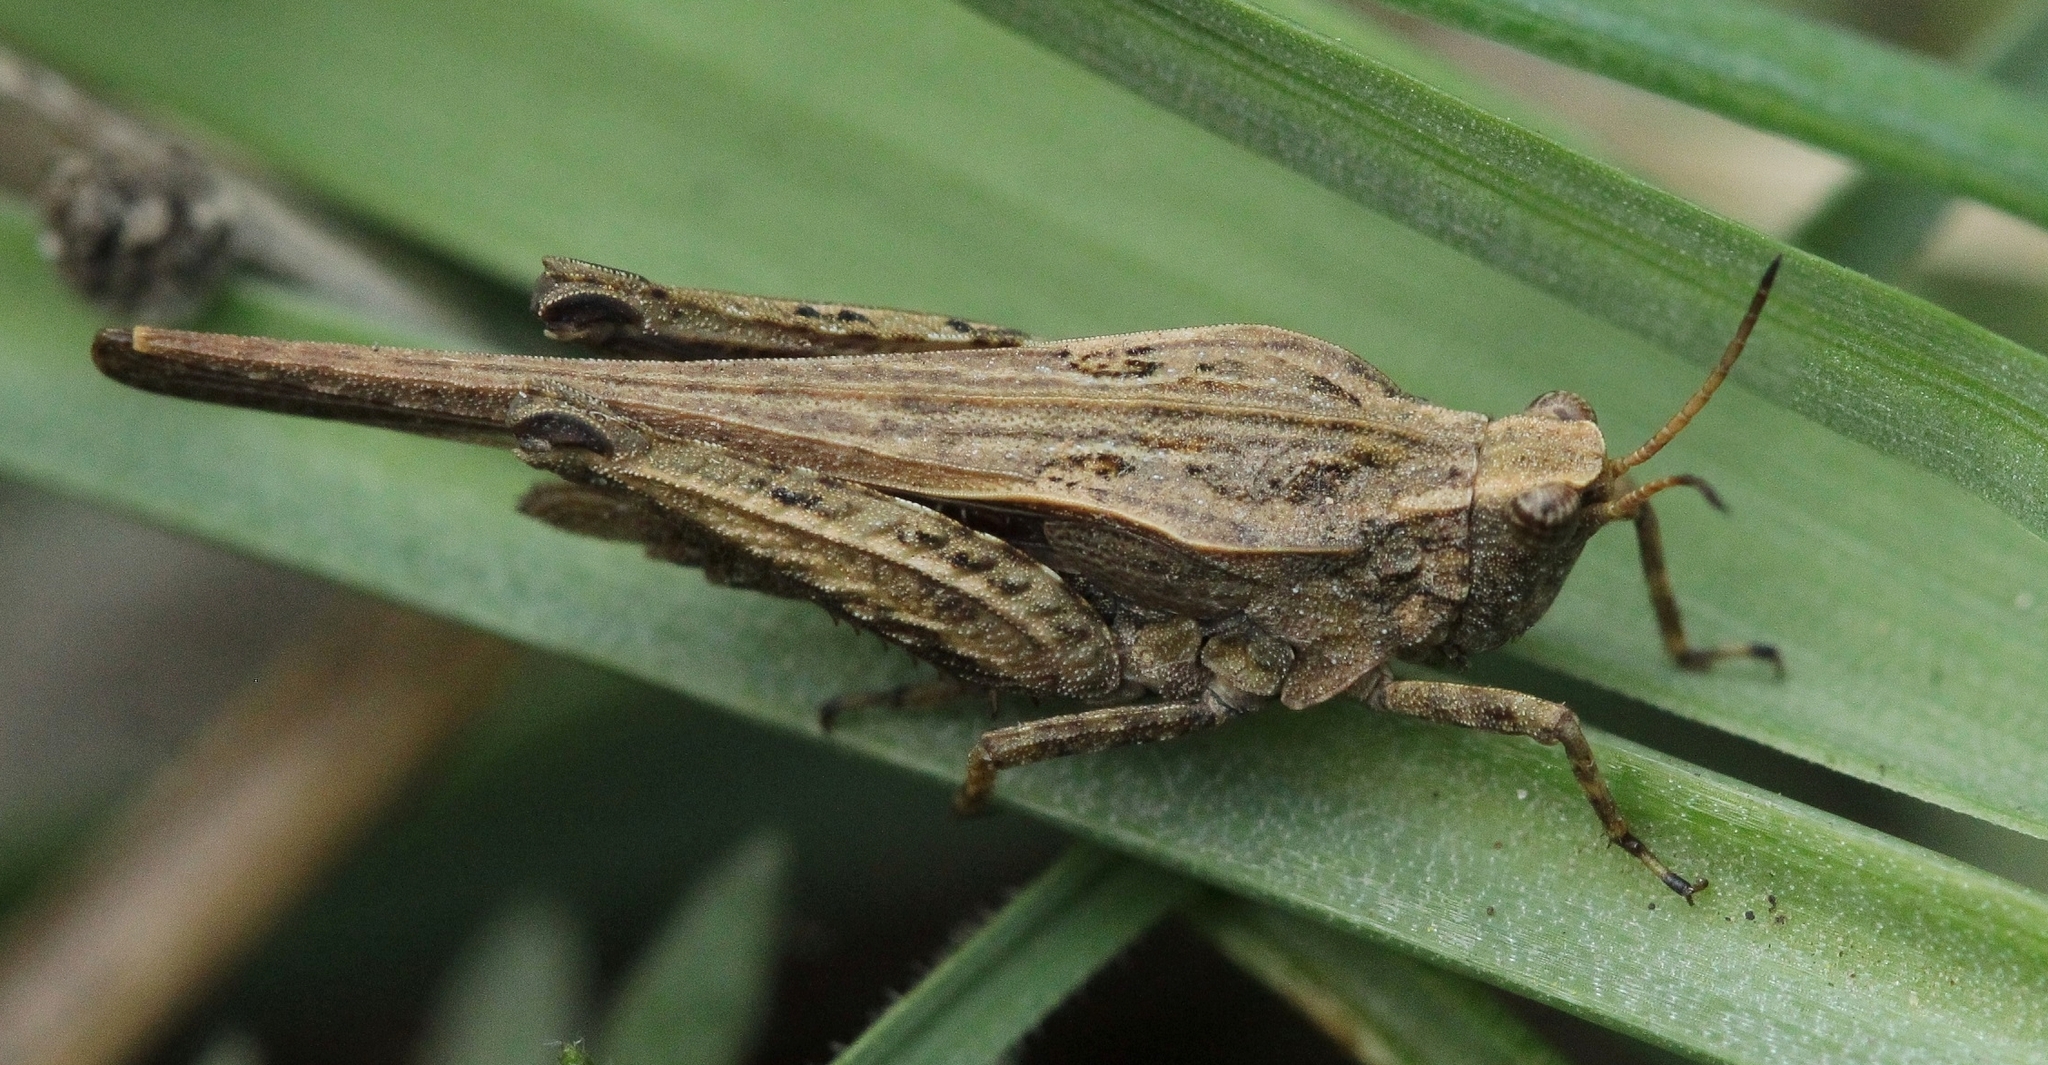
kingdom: Animalia
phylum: Arthropoda
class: Insecta
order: Orthoptera
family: Tetrigidae
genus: Tetrix
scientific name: Tetrix subulata
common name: Slender ground-hopper
